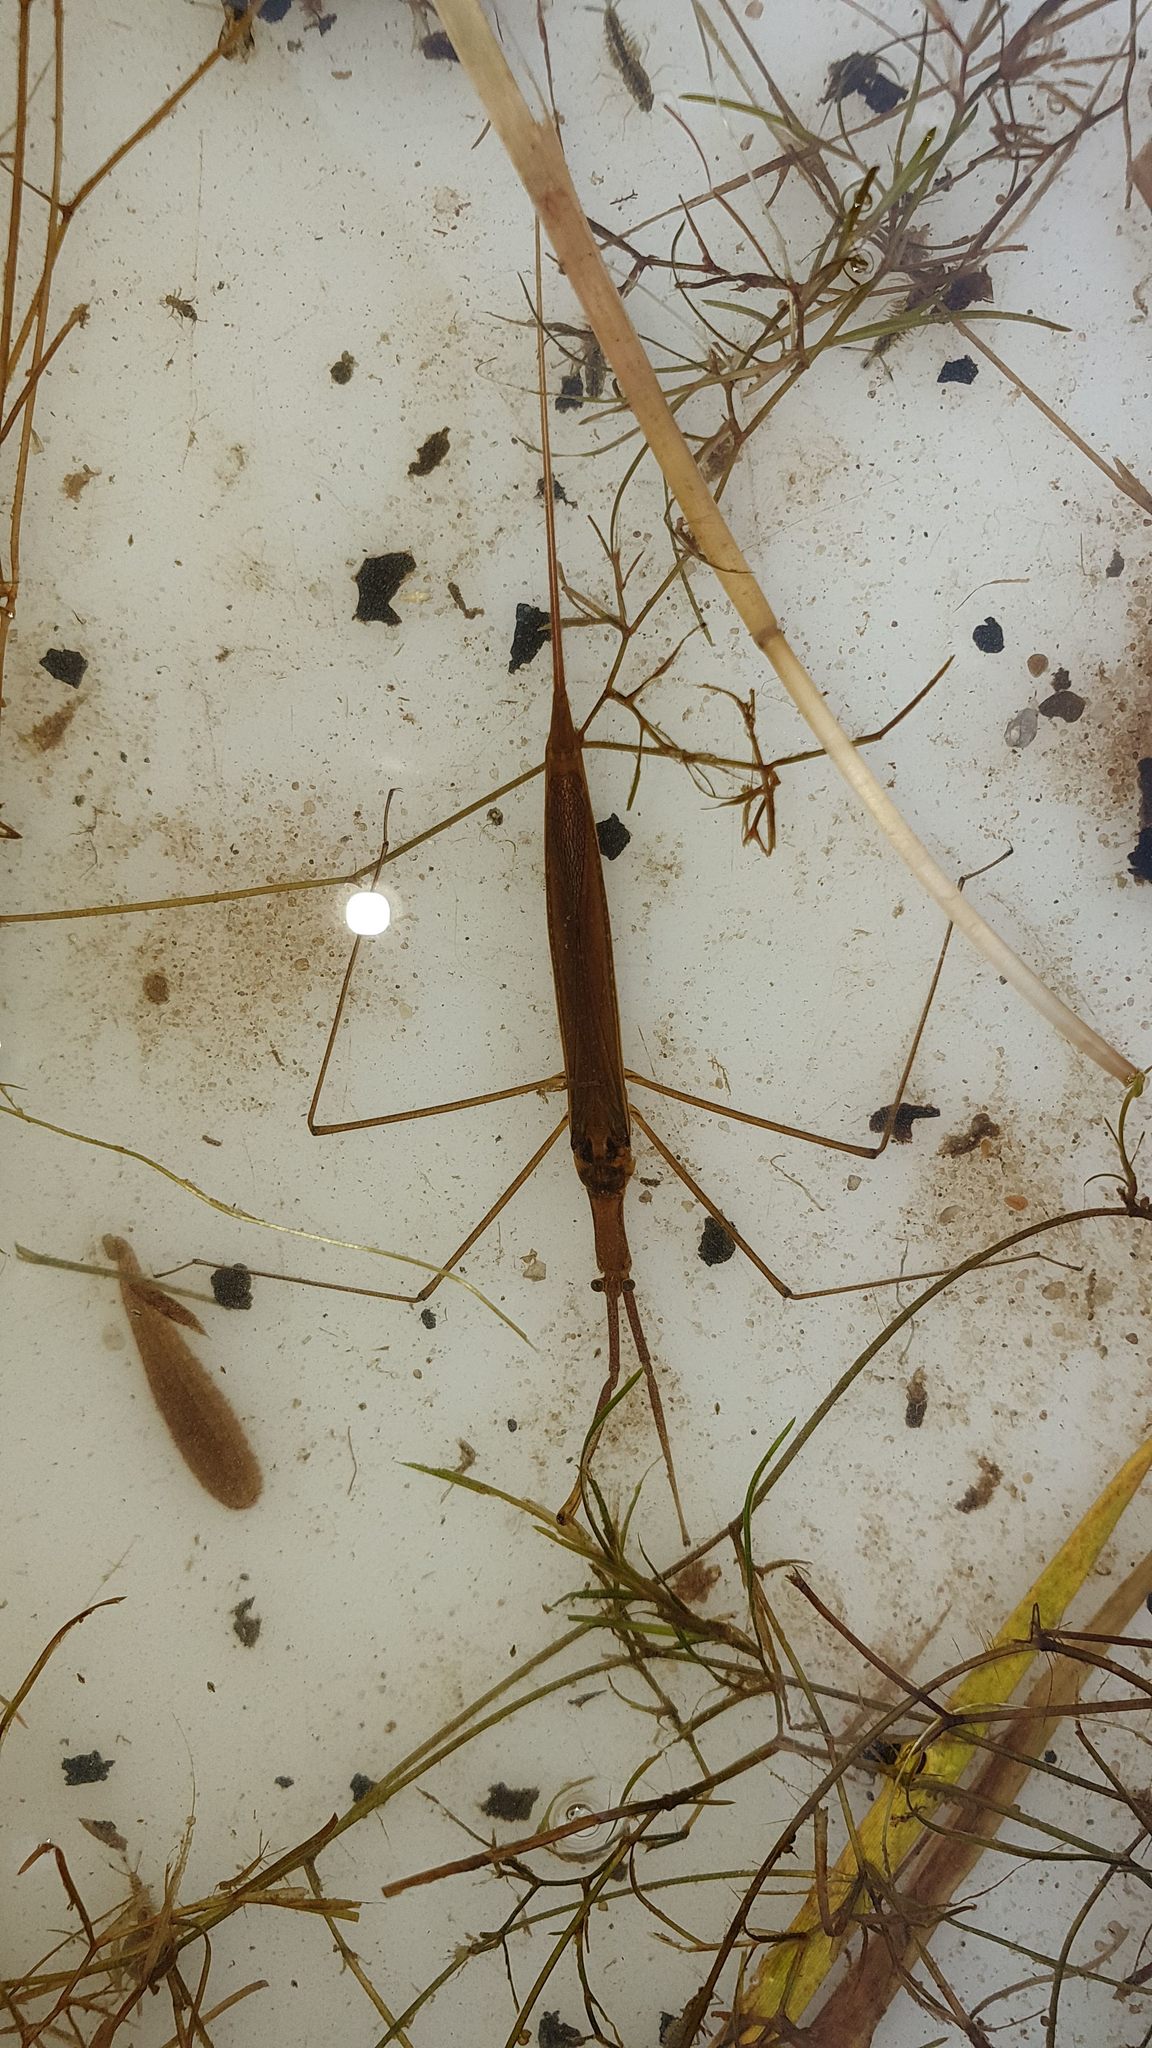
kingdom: Animalia
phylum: Arthropoda
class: Insecta
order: Hemiptera
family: Nepidae
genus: Ranatra
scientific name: Ranatra linearis
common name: Water stick insect
